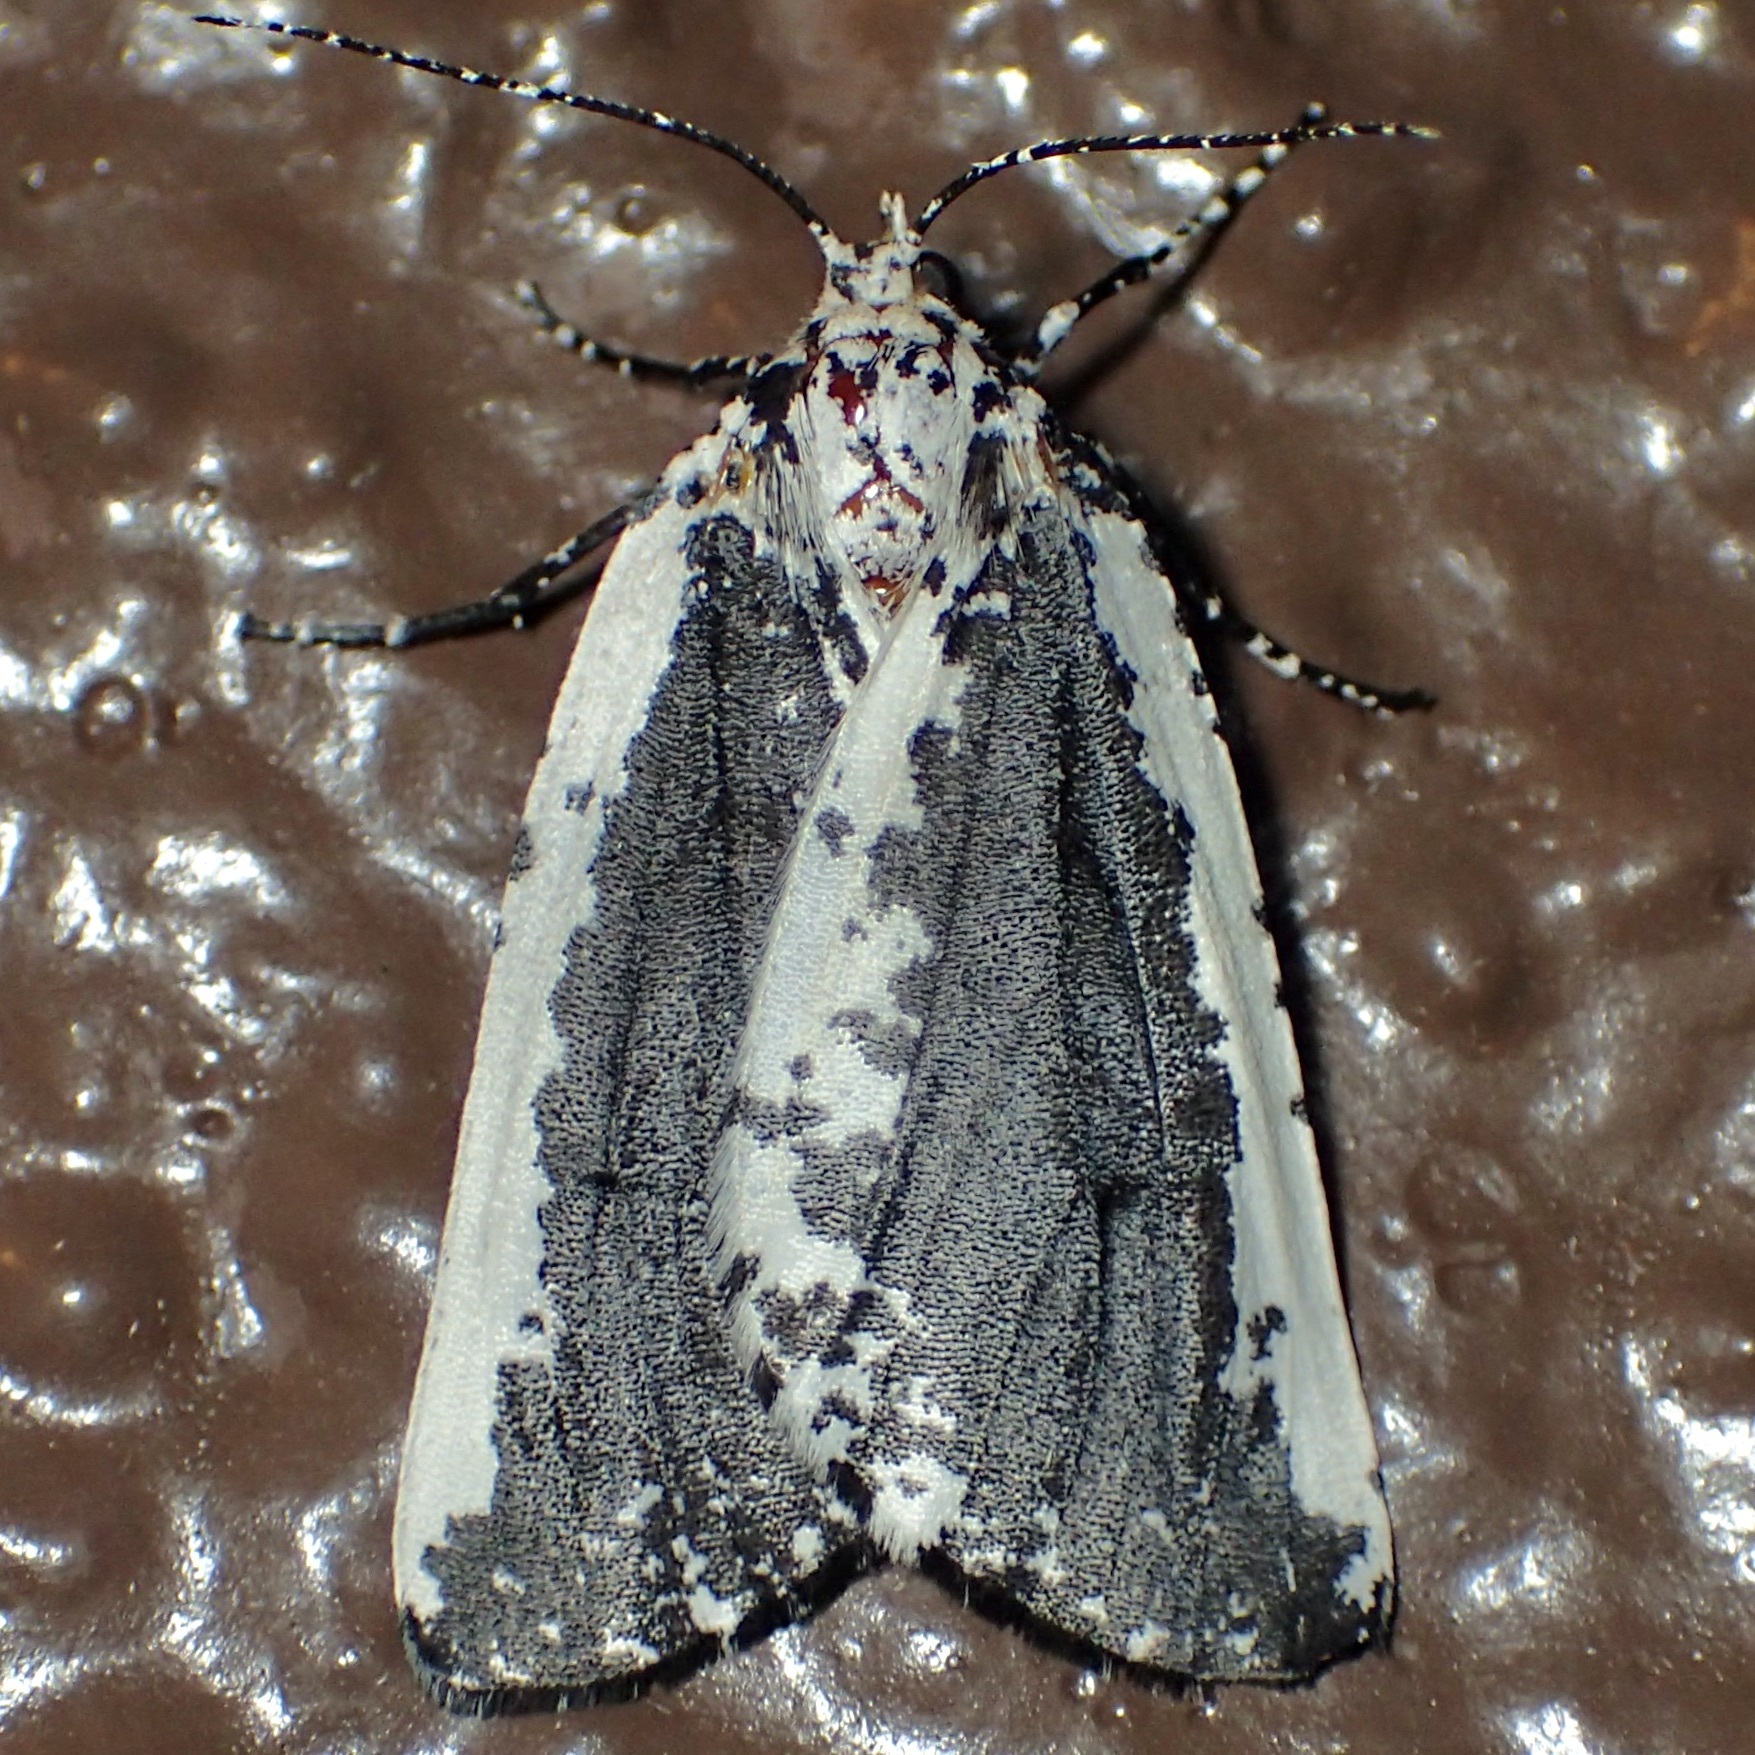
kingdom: Animalia
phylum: Arthropoda
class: Insecta
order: Lepidoptera
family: Geometridae
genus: Eucaterva
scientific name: Eucaterva variaria
